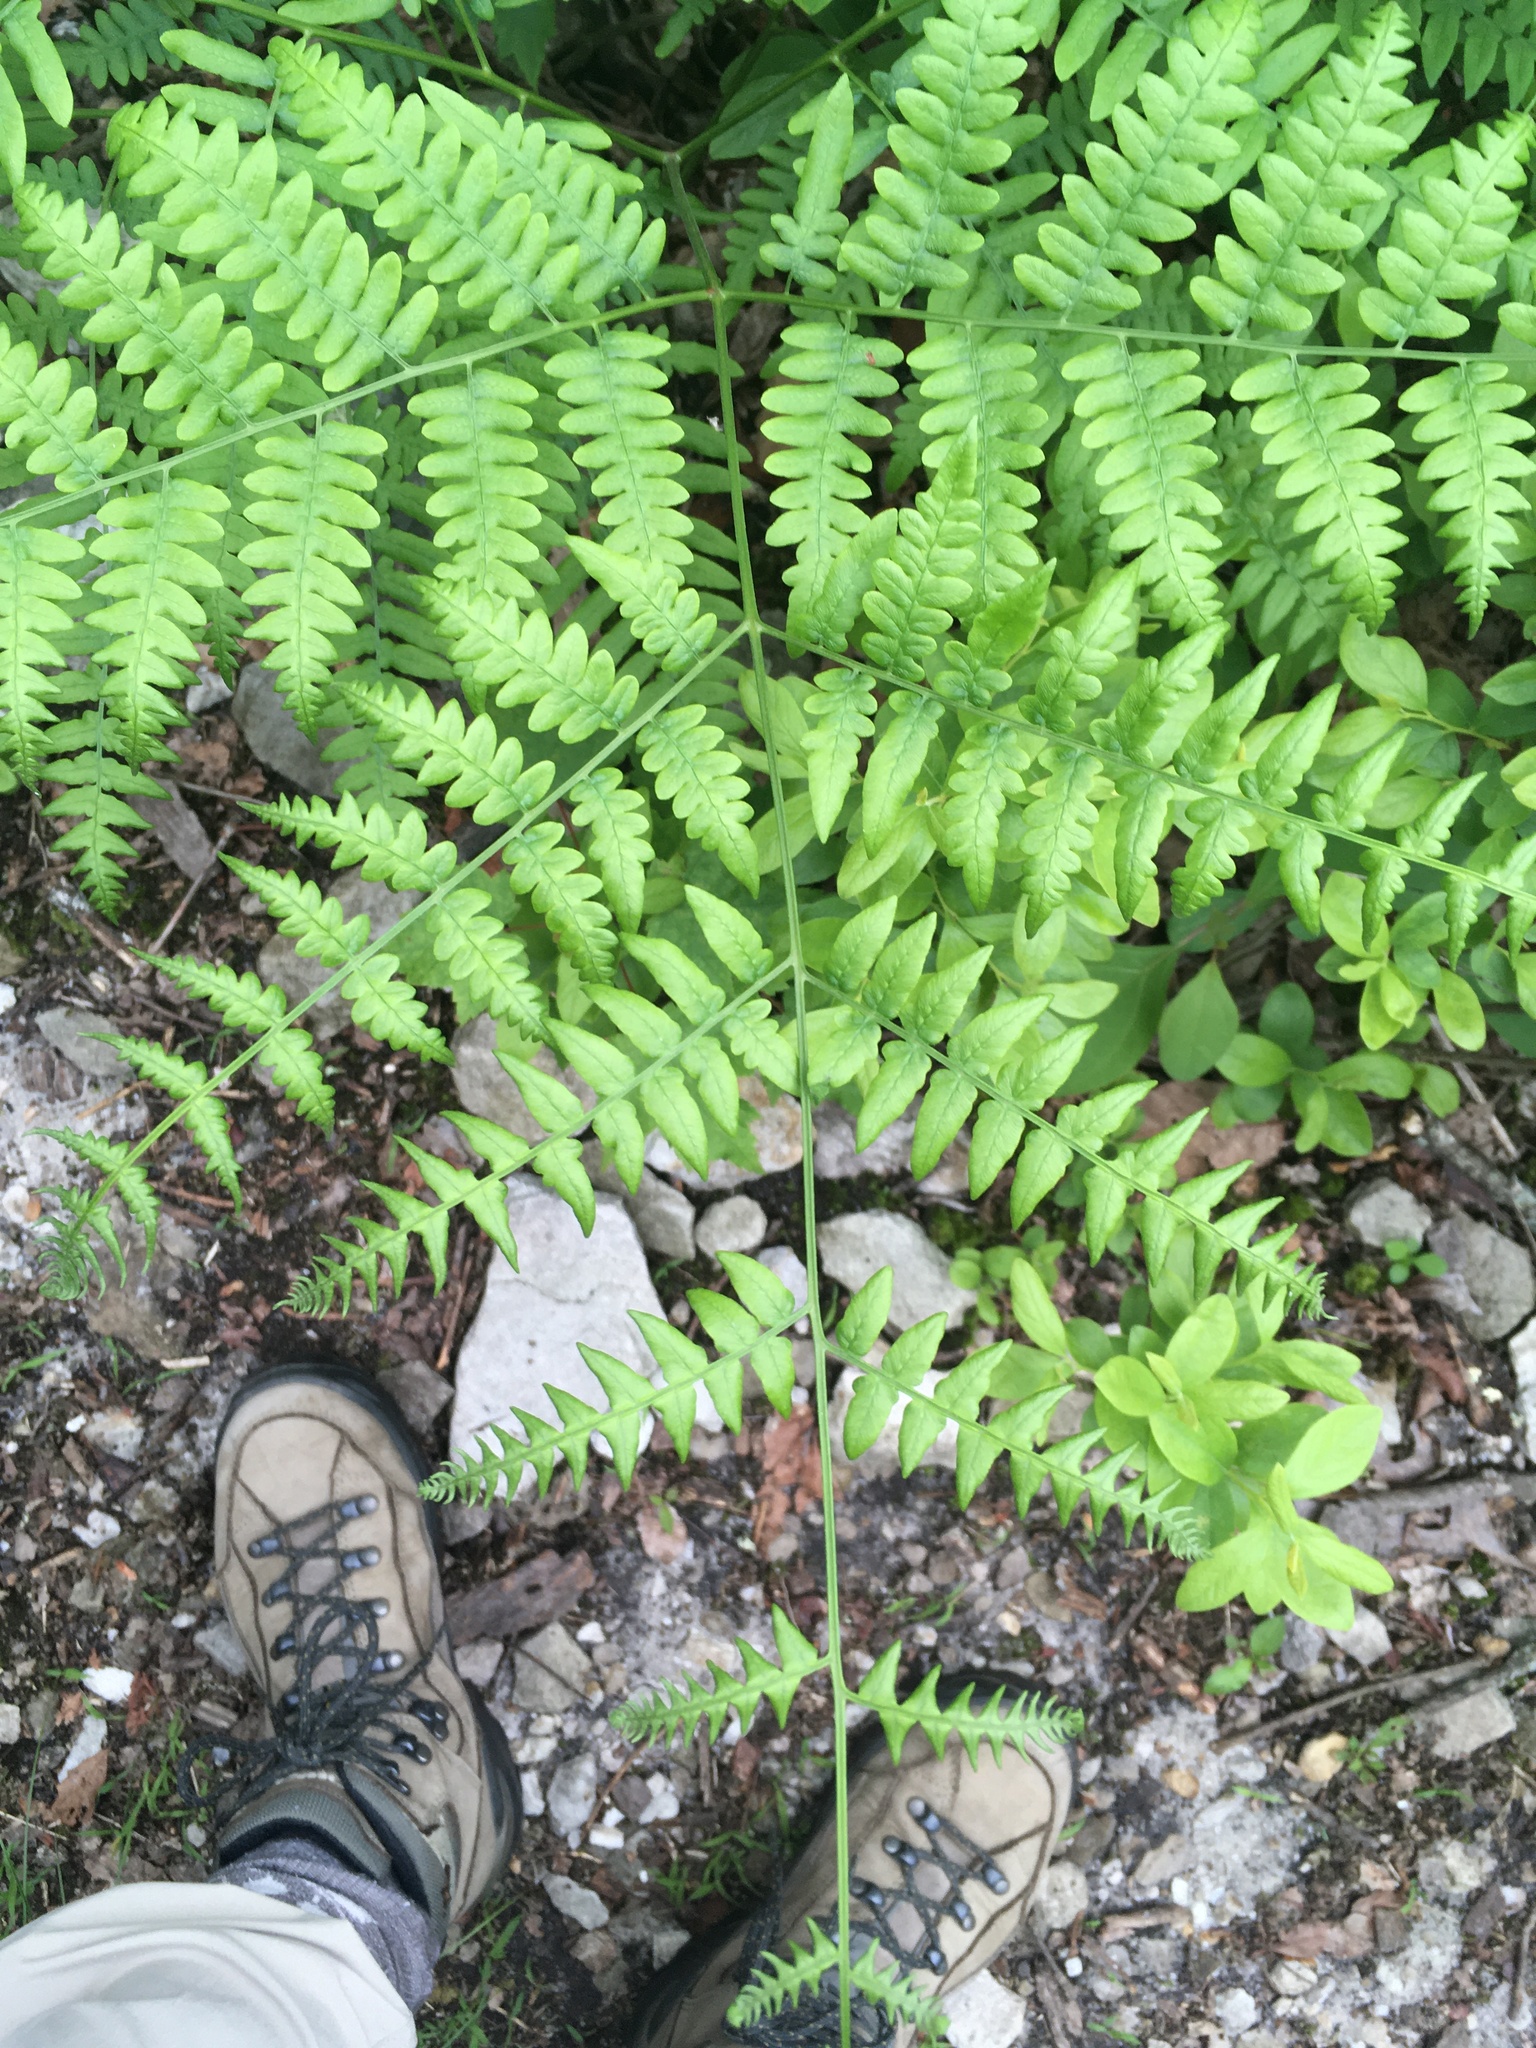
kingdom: Plantae
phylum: Tracheophyta
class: Polypodiopsida
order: Polypodiales
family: Dennstaedtiaceae
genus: Pteridium
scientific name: Pteridium aquilinum
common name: Bracken
